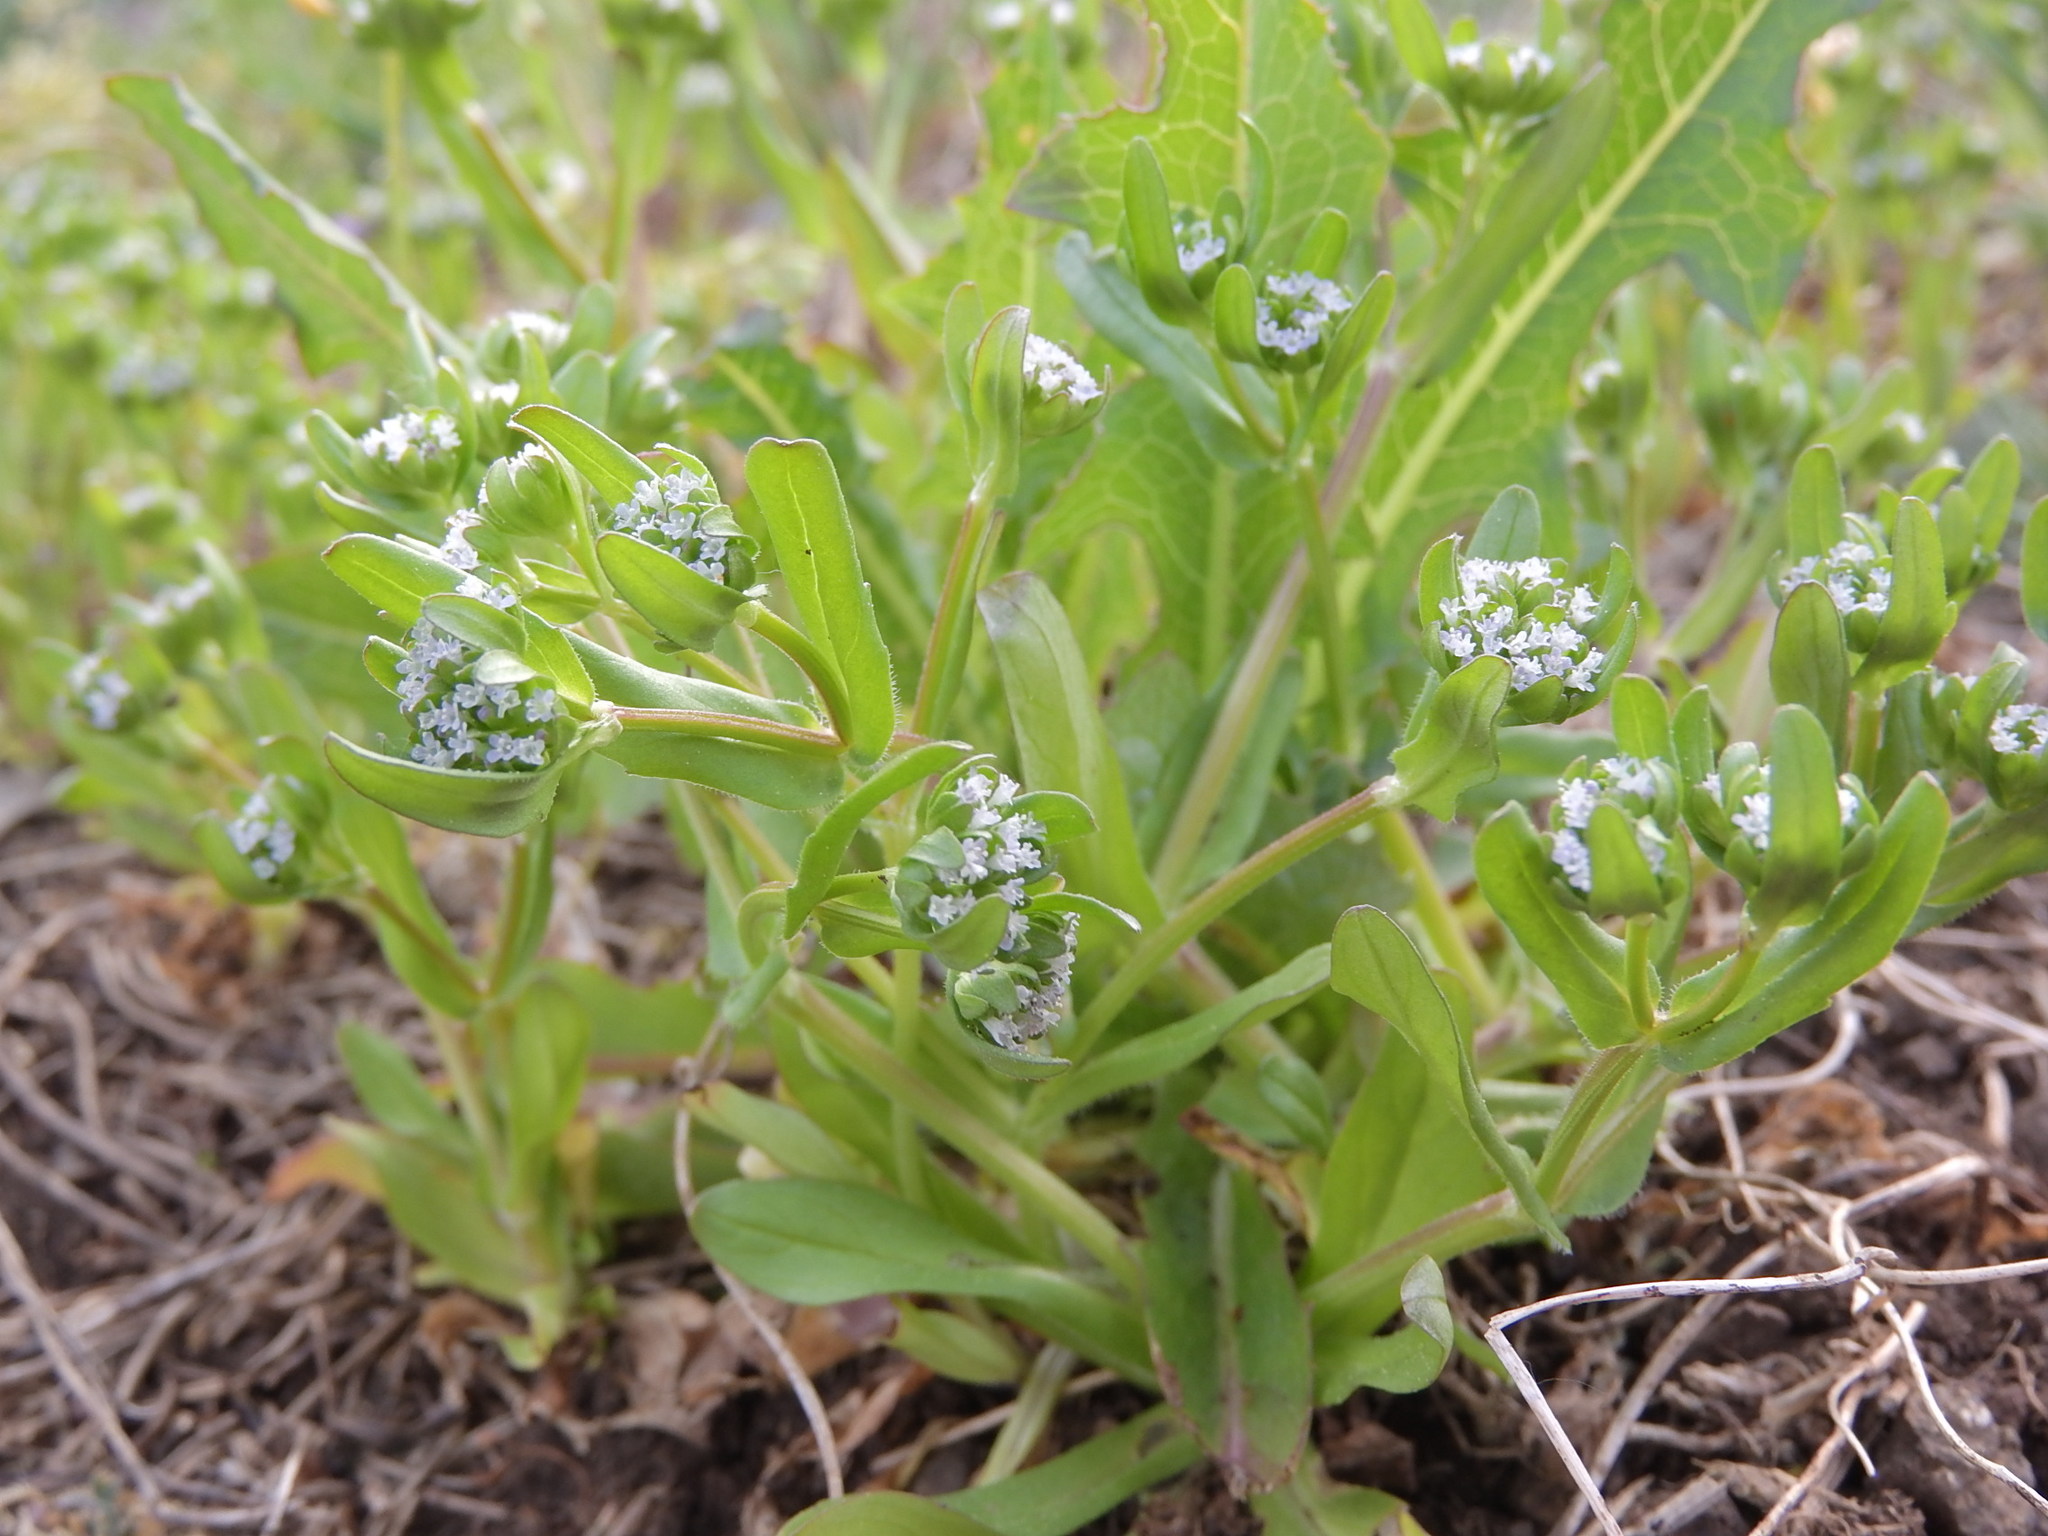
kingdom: Plantae
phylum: Tracheophyta
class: Magnoliopsida
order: Dipsacales
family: Caprifoliaceae
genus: Valerianella
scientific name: Valerianella locusta
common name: Common cornsalad
